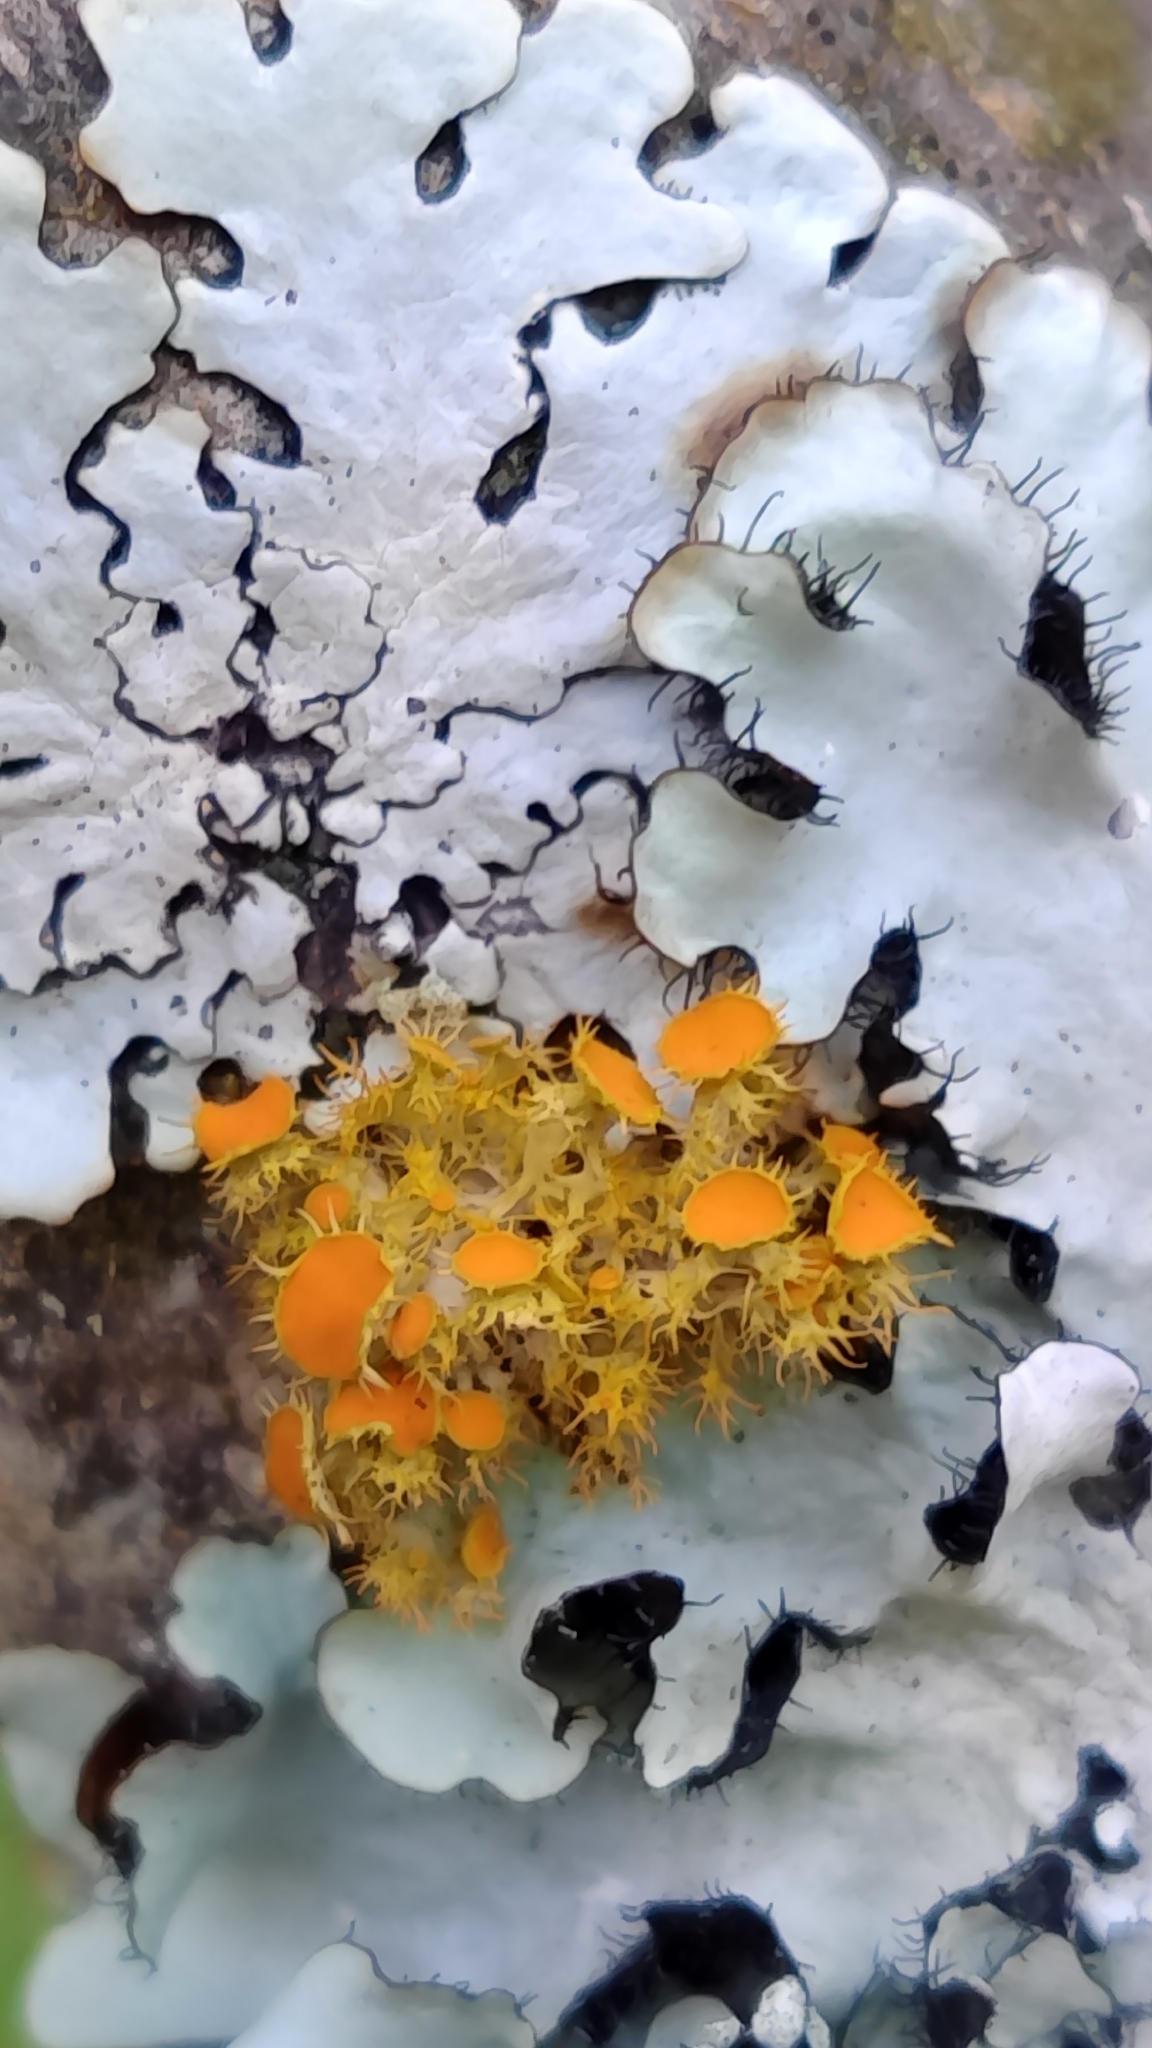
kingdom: Fungi
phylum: Ascomycota
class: Lecanoromycetes
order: Teloschistales
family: Teloschistaceae
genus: Niorma
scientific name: Niorma chrysophthalma
